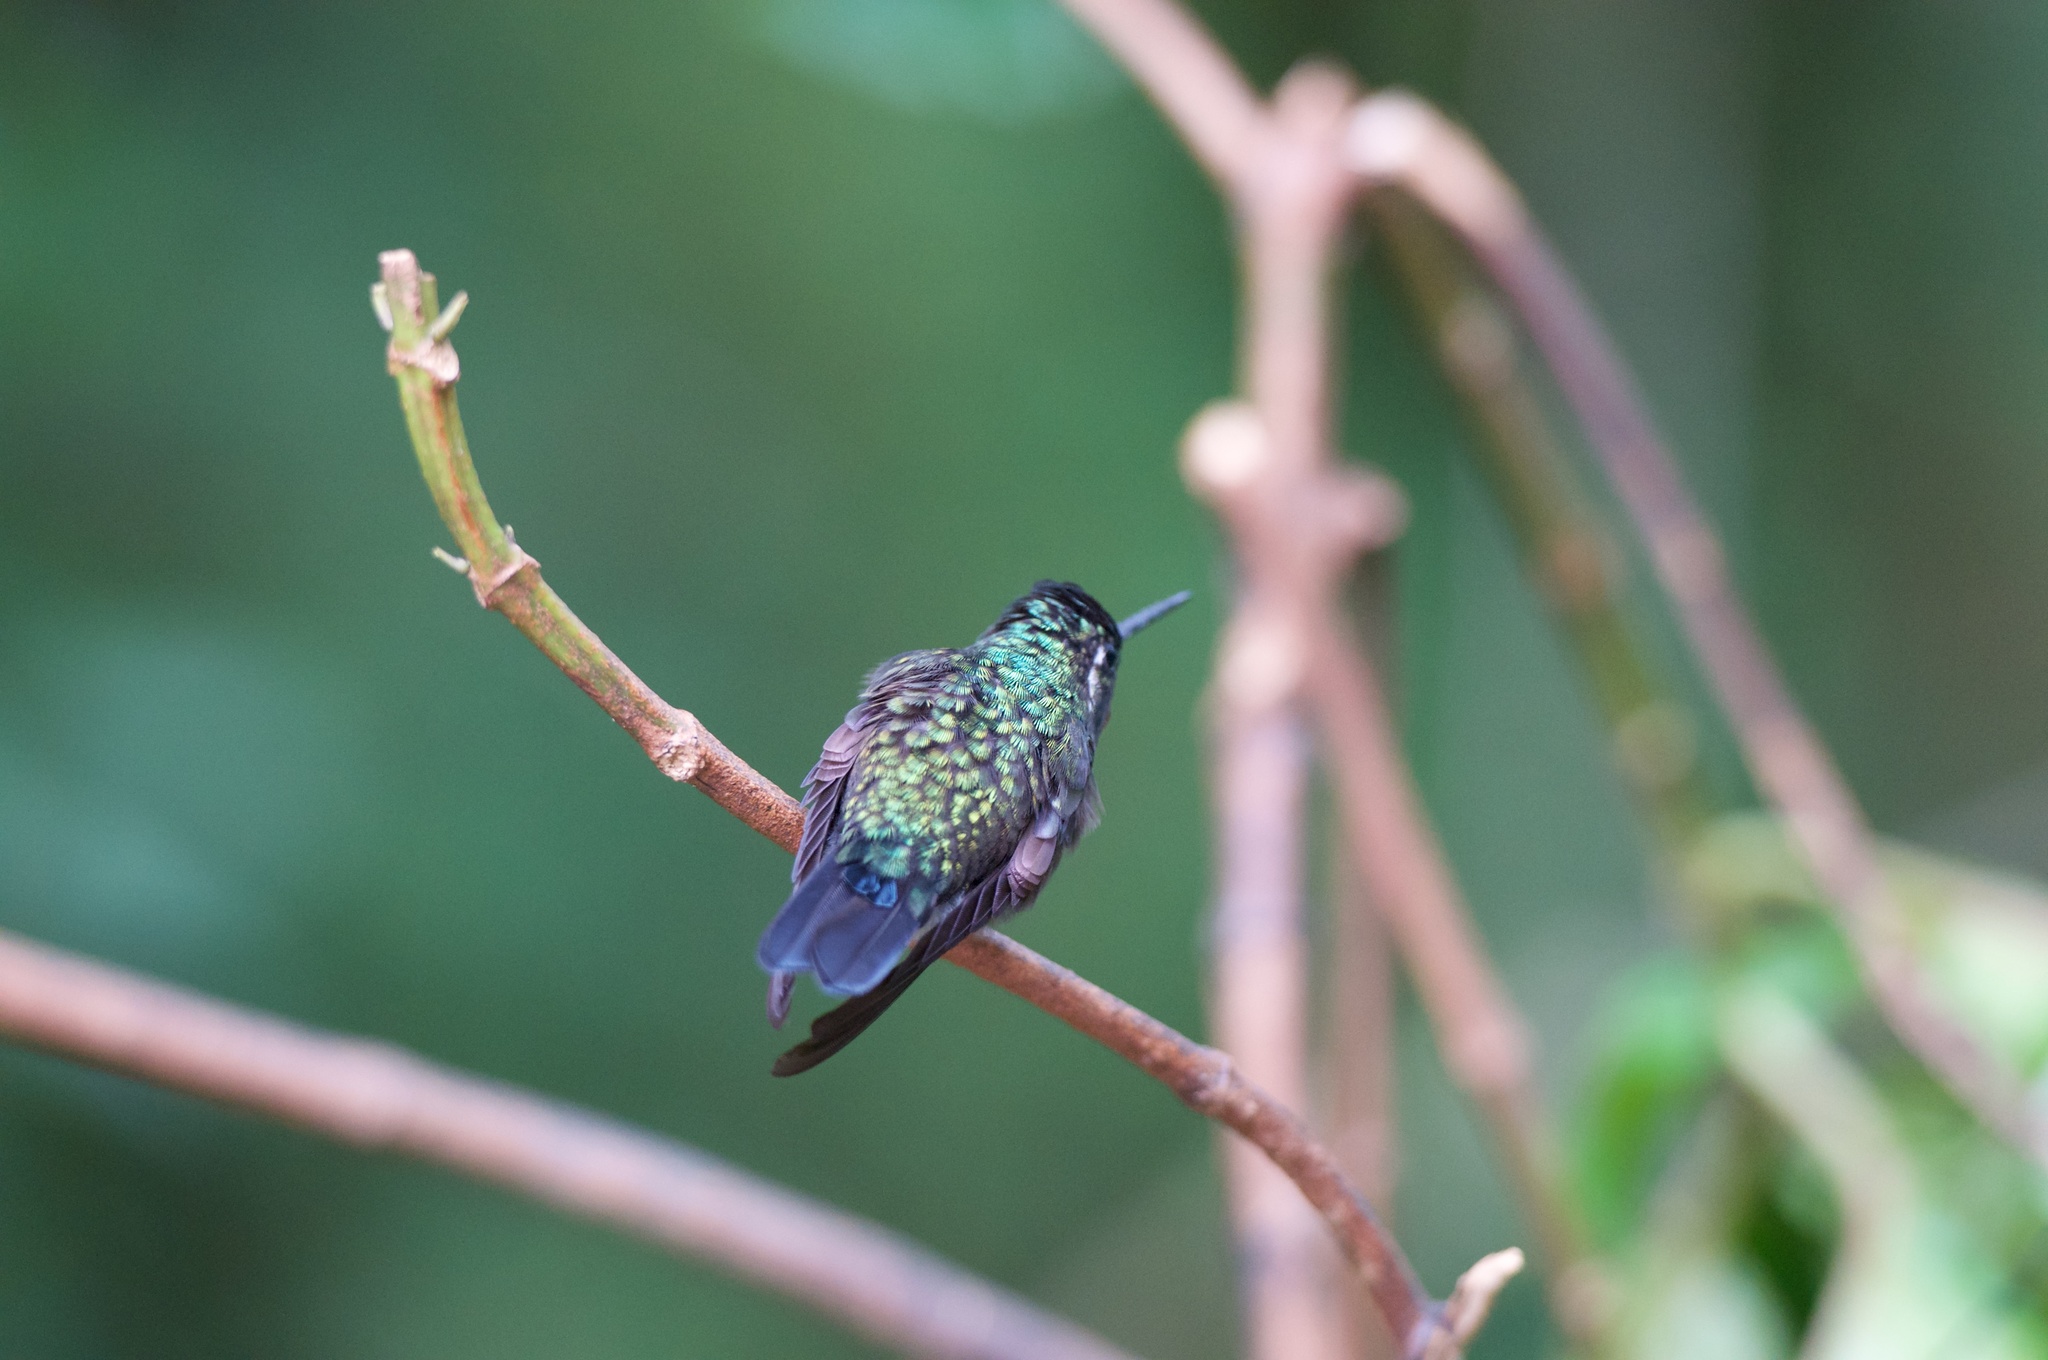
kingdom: Animalia
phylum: Chordata
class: Aves
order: Apodiformes
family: Trochilidae
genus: Lampornis
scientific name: Lampornis calolaemus
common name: Purple-throated mountain-gem
